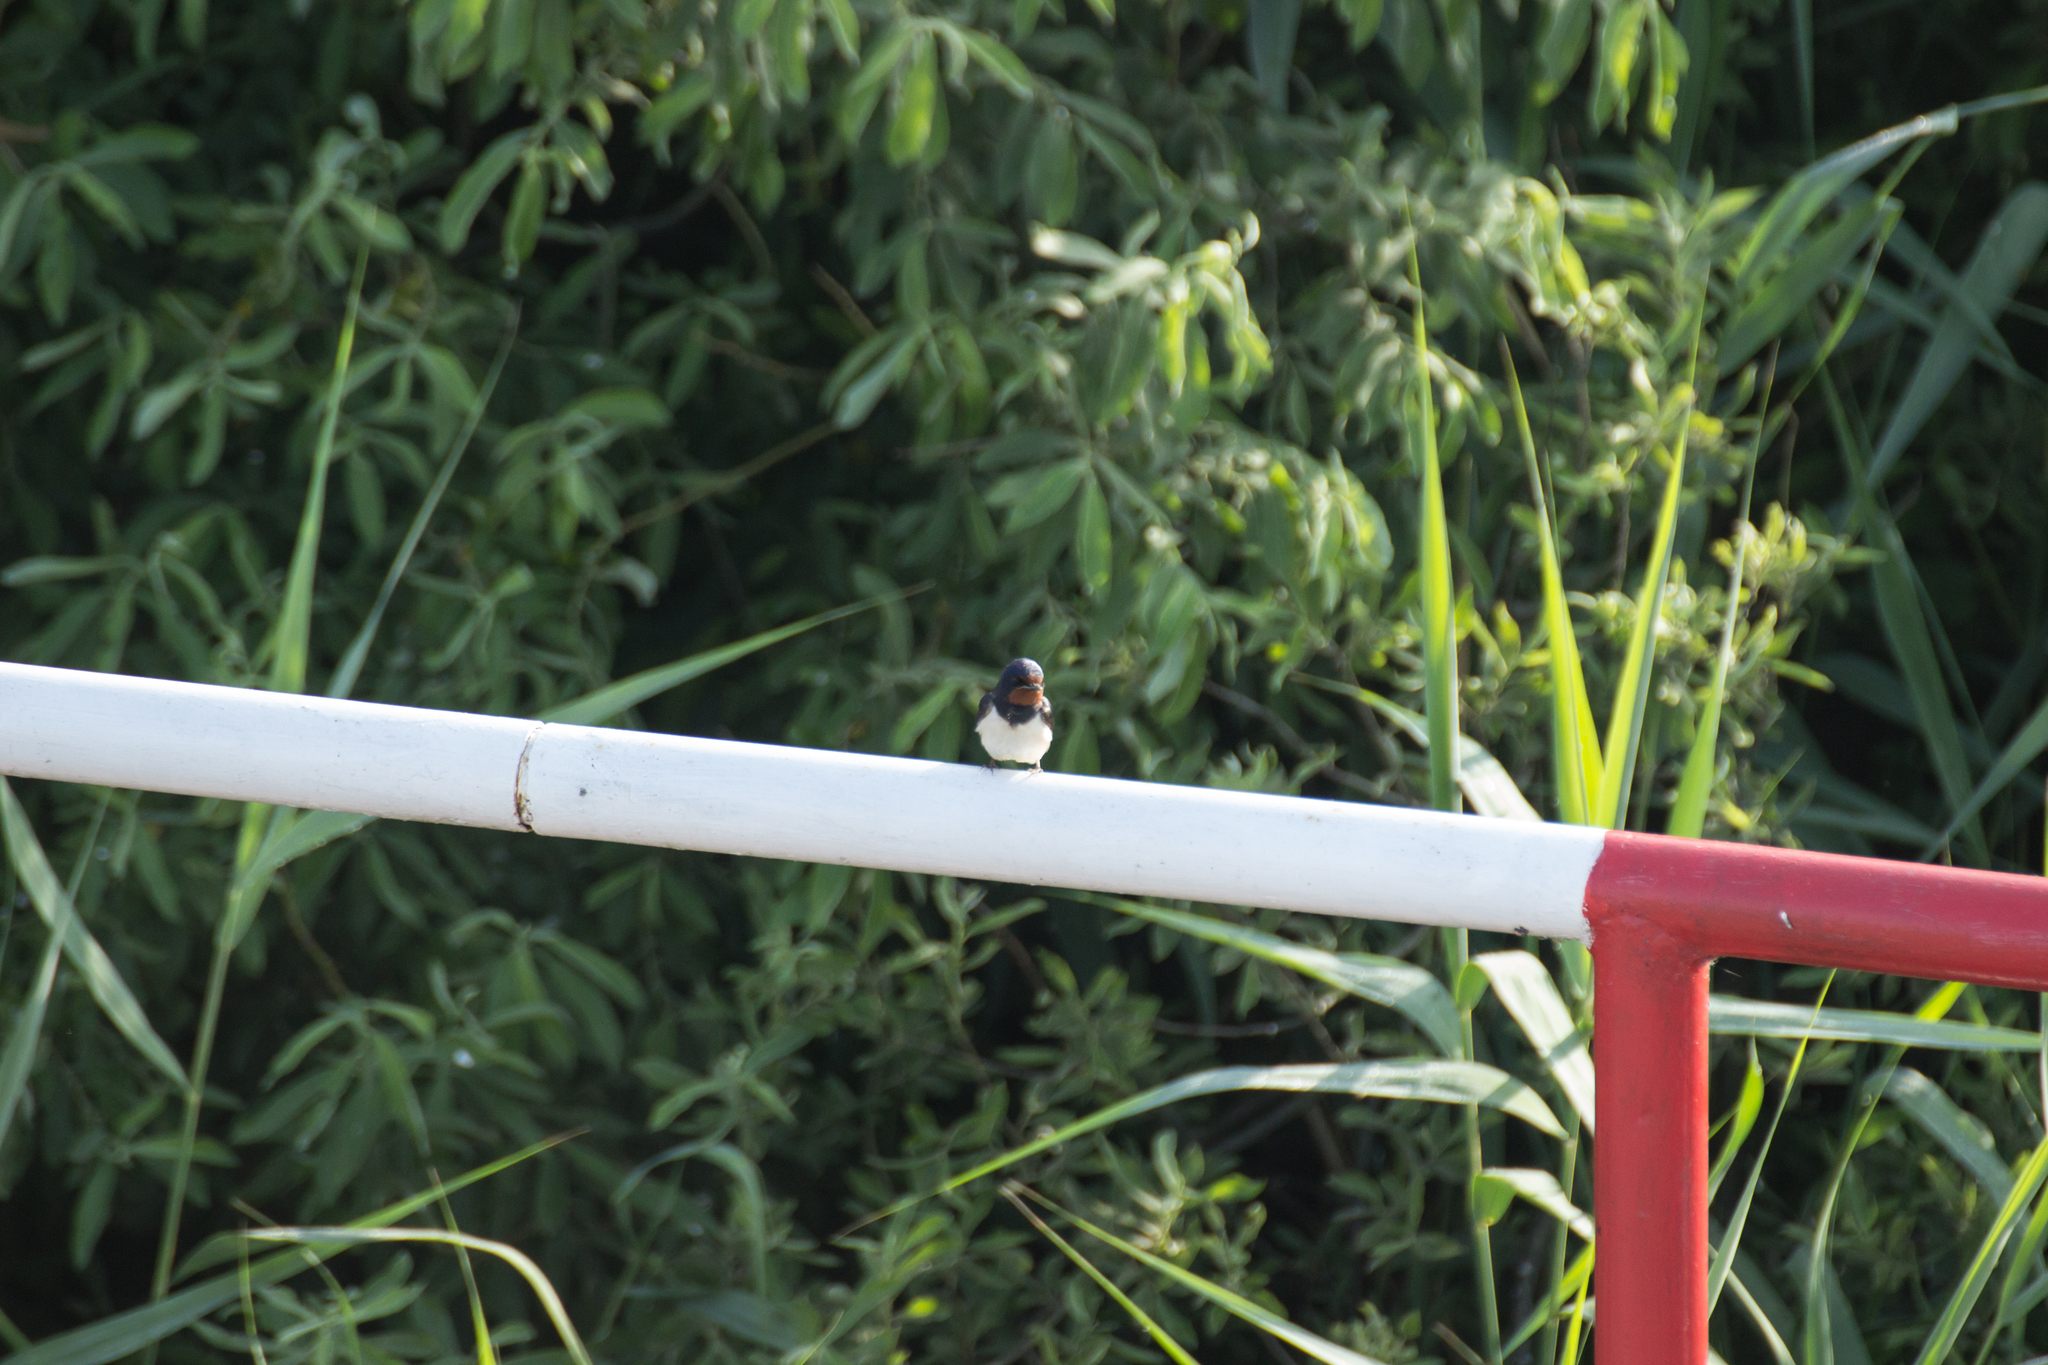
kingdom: Animalia
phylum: Chordata
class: Aves
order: Passeriformes
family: Hirundinidae
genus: Hirundo
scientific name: Hirundo rustica
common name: Barn swallow
